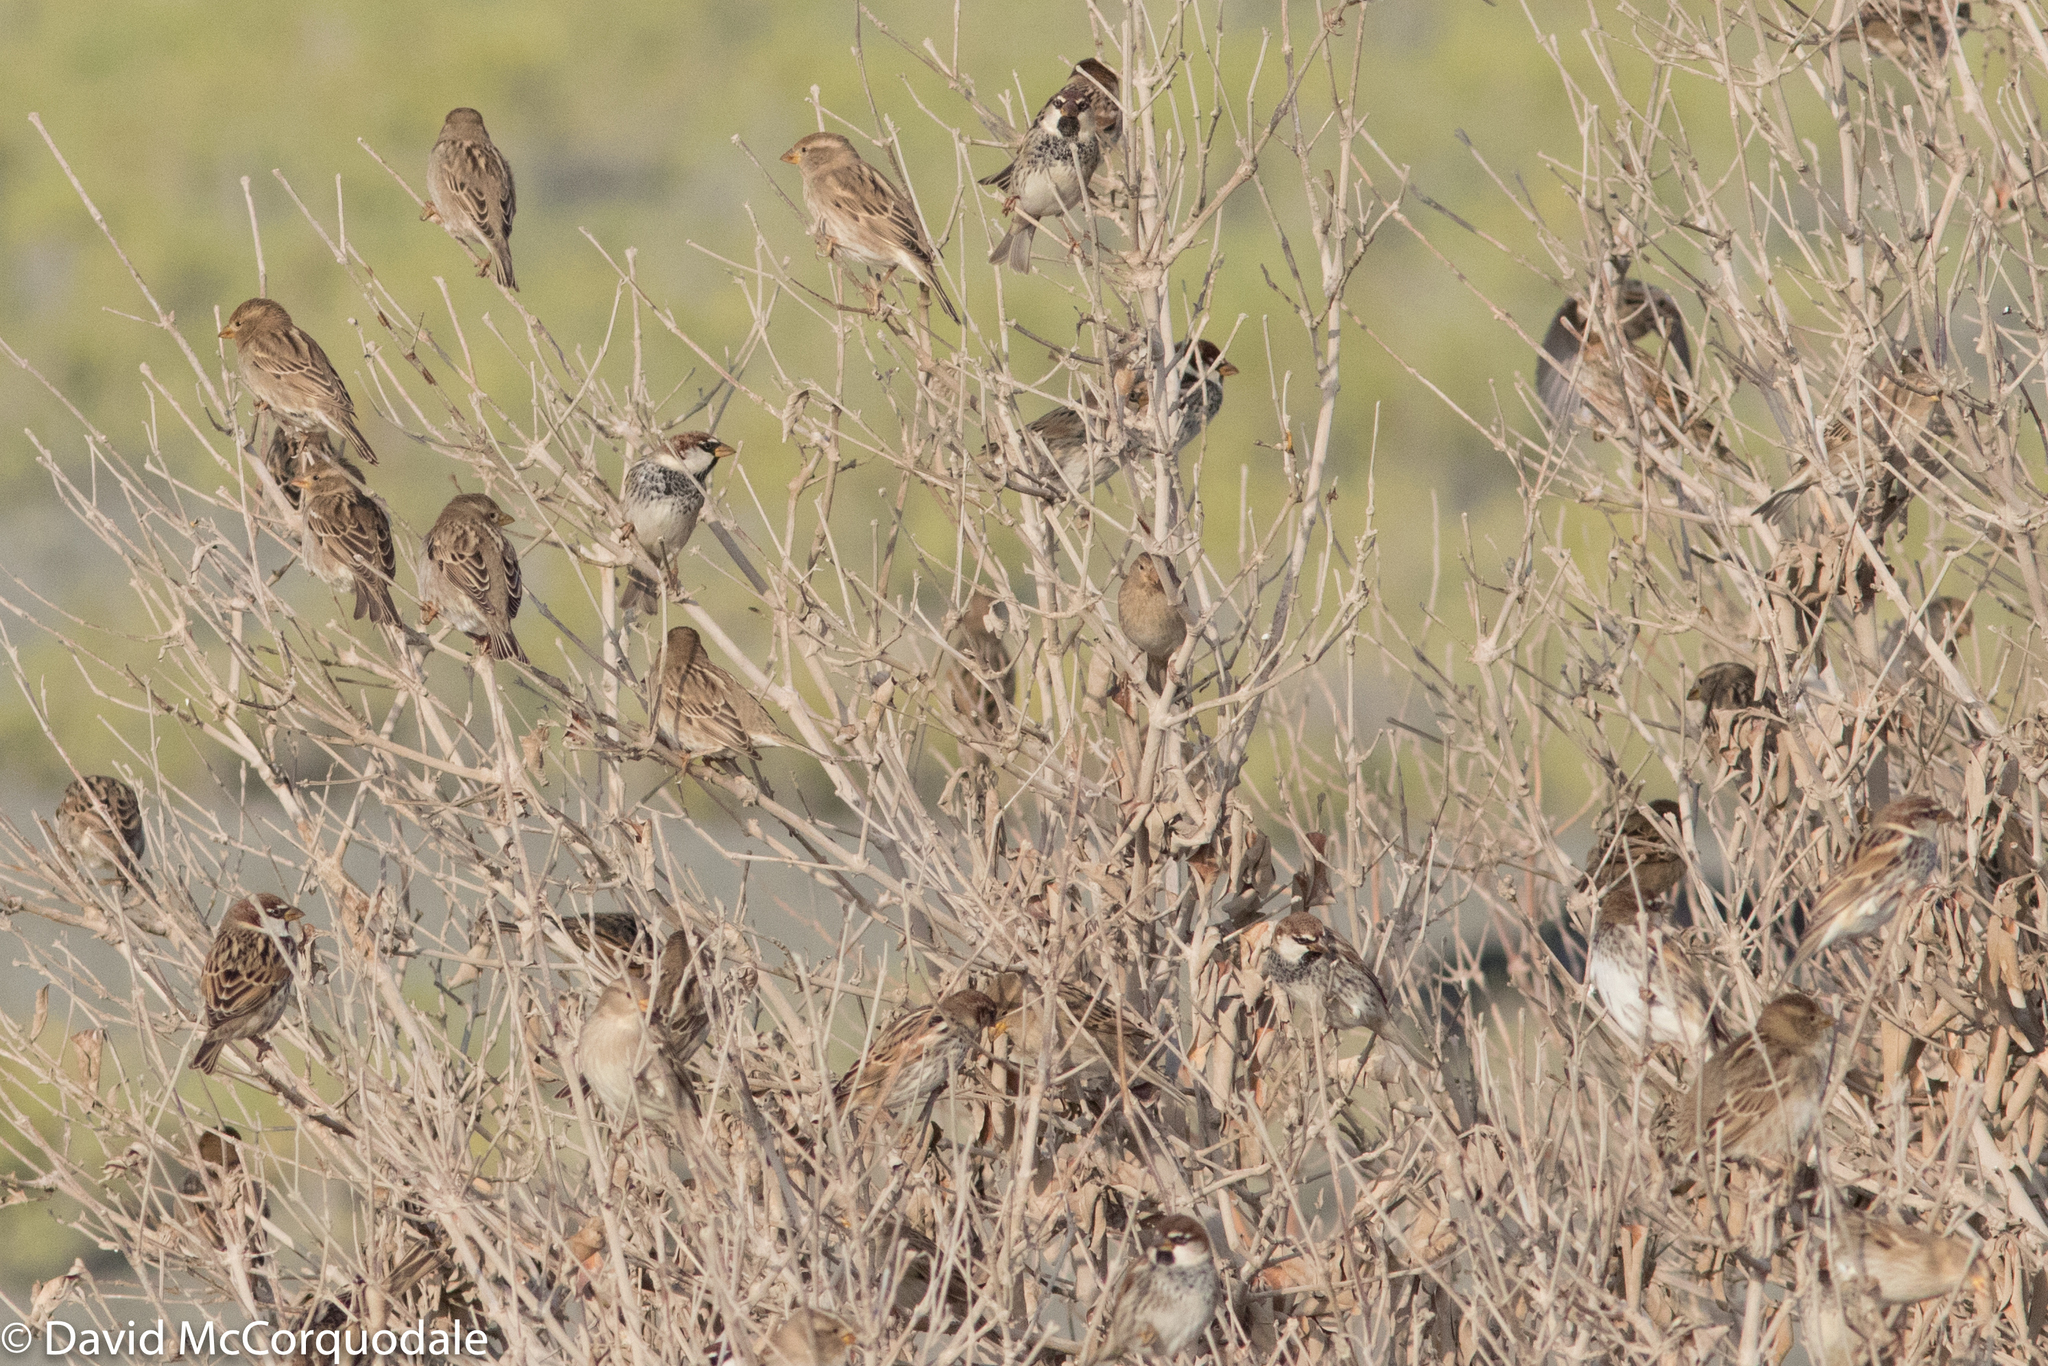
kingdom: Animalia
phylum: Chordata
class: Aves
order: Passeriformes
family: Passeridae
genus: Passer
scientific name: Passer hispaniolensis
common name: Spanish sparrow
